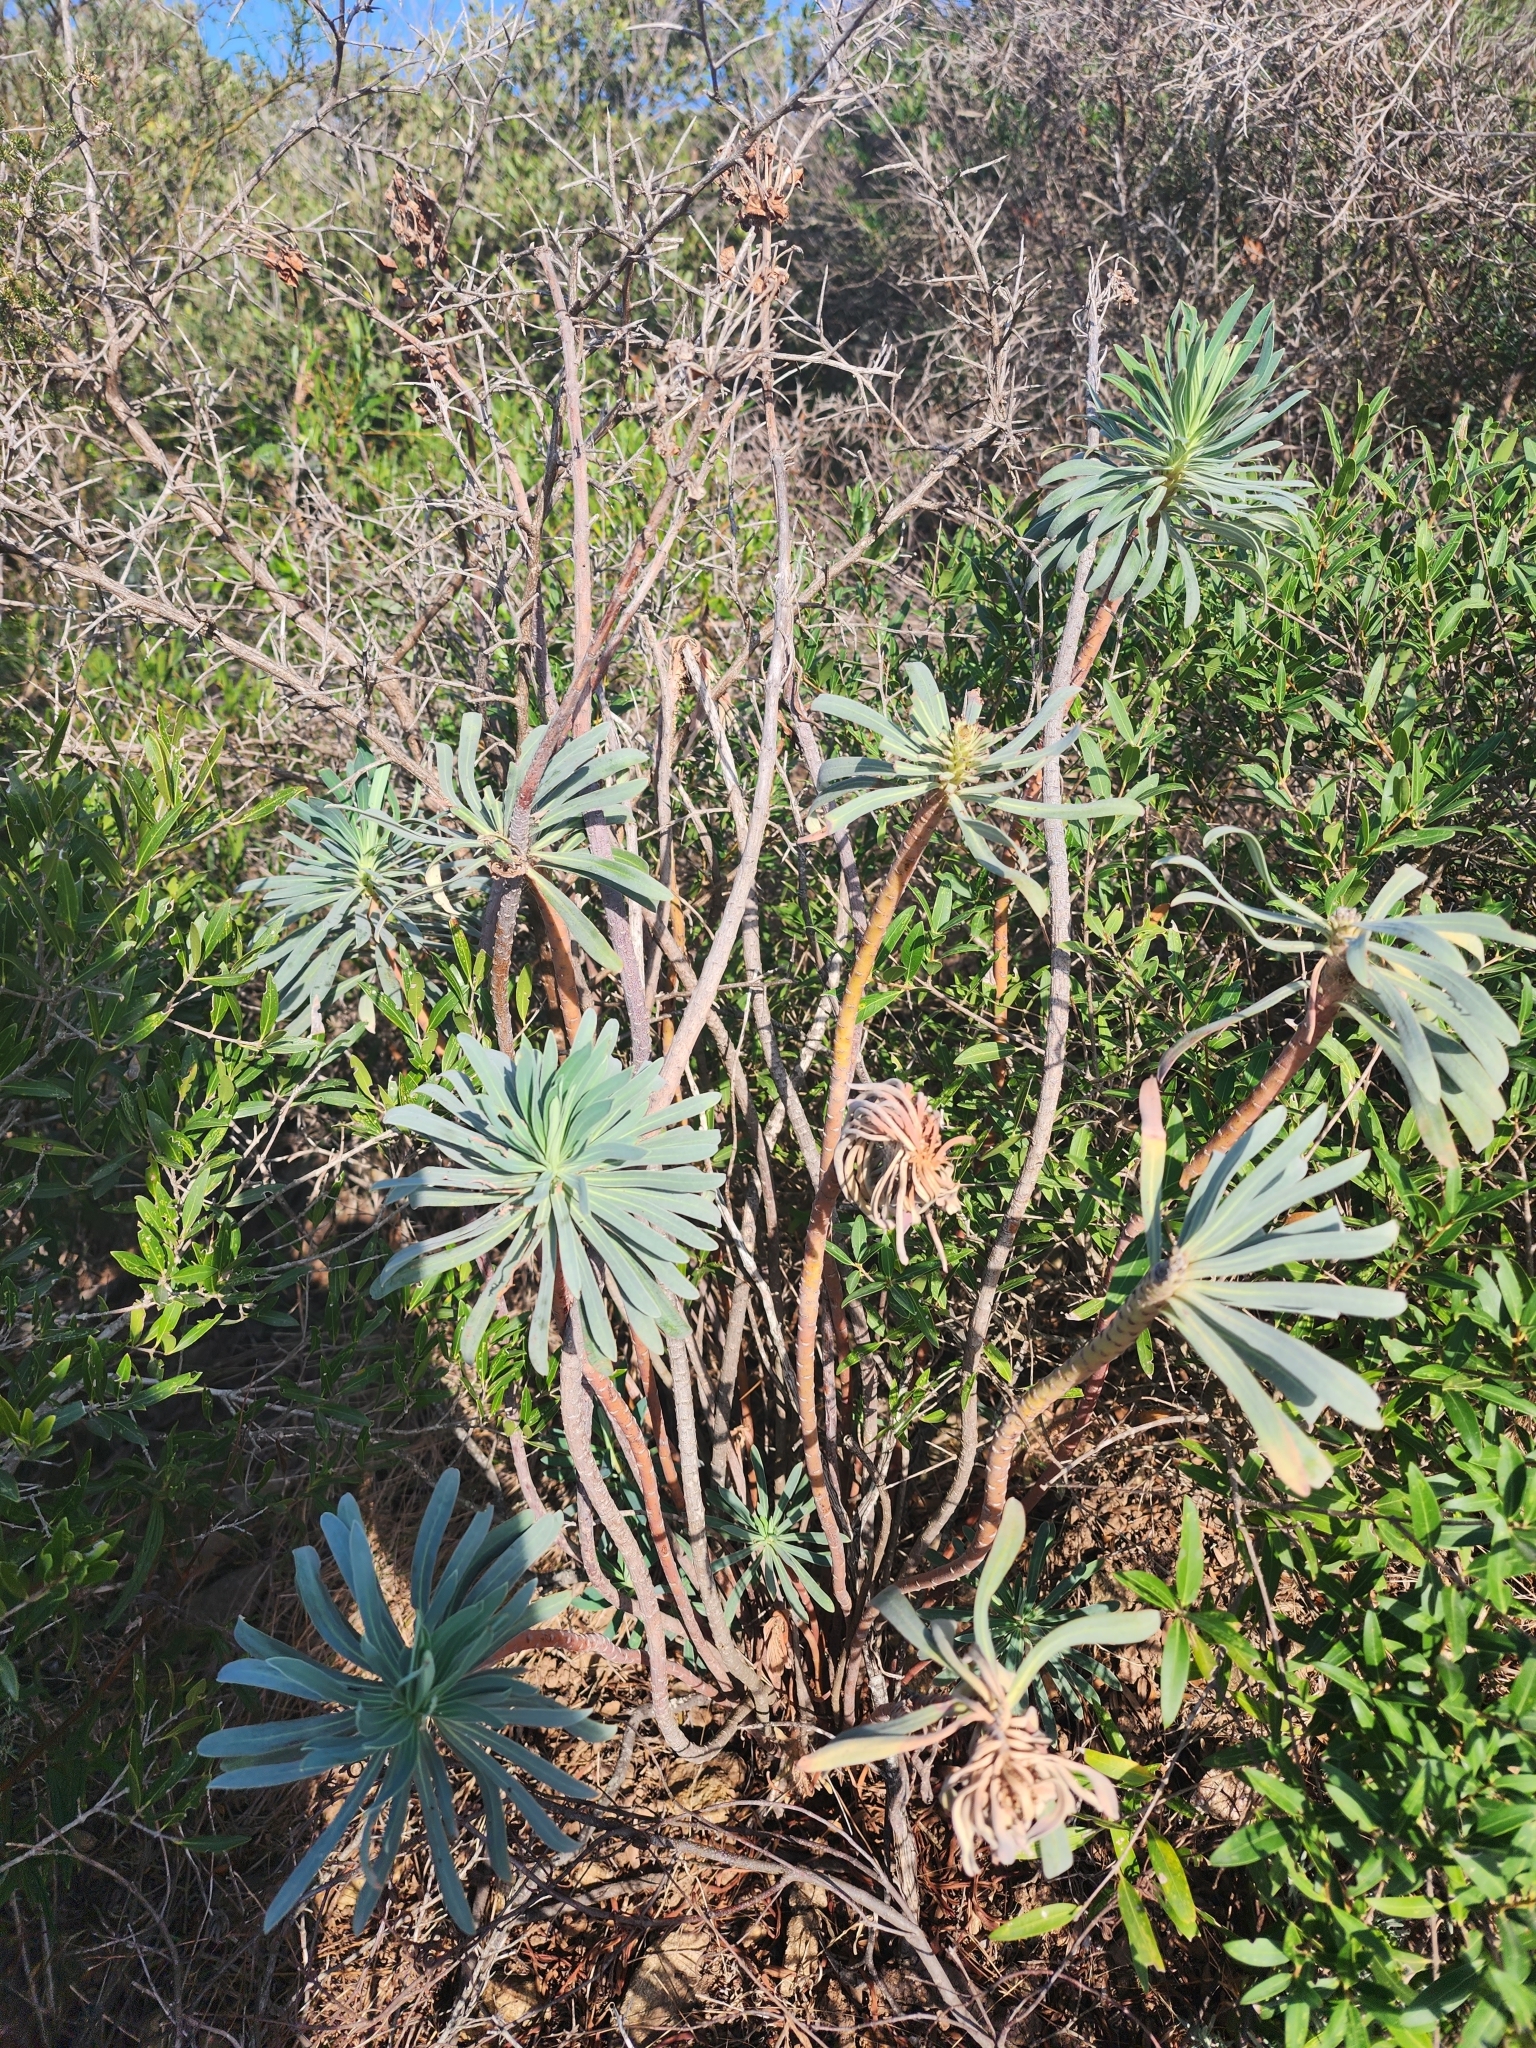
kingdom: Plantae
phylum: Tracheophyta
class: Magnoliopsida
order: Malpighiales
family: Euphorbiaceae
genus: Euphorbia
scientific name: Euphorbia characias
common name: Mediterranean spurge
